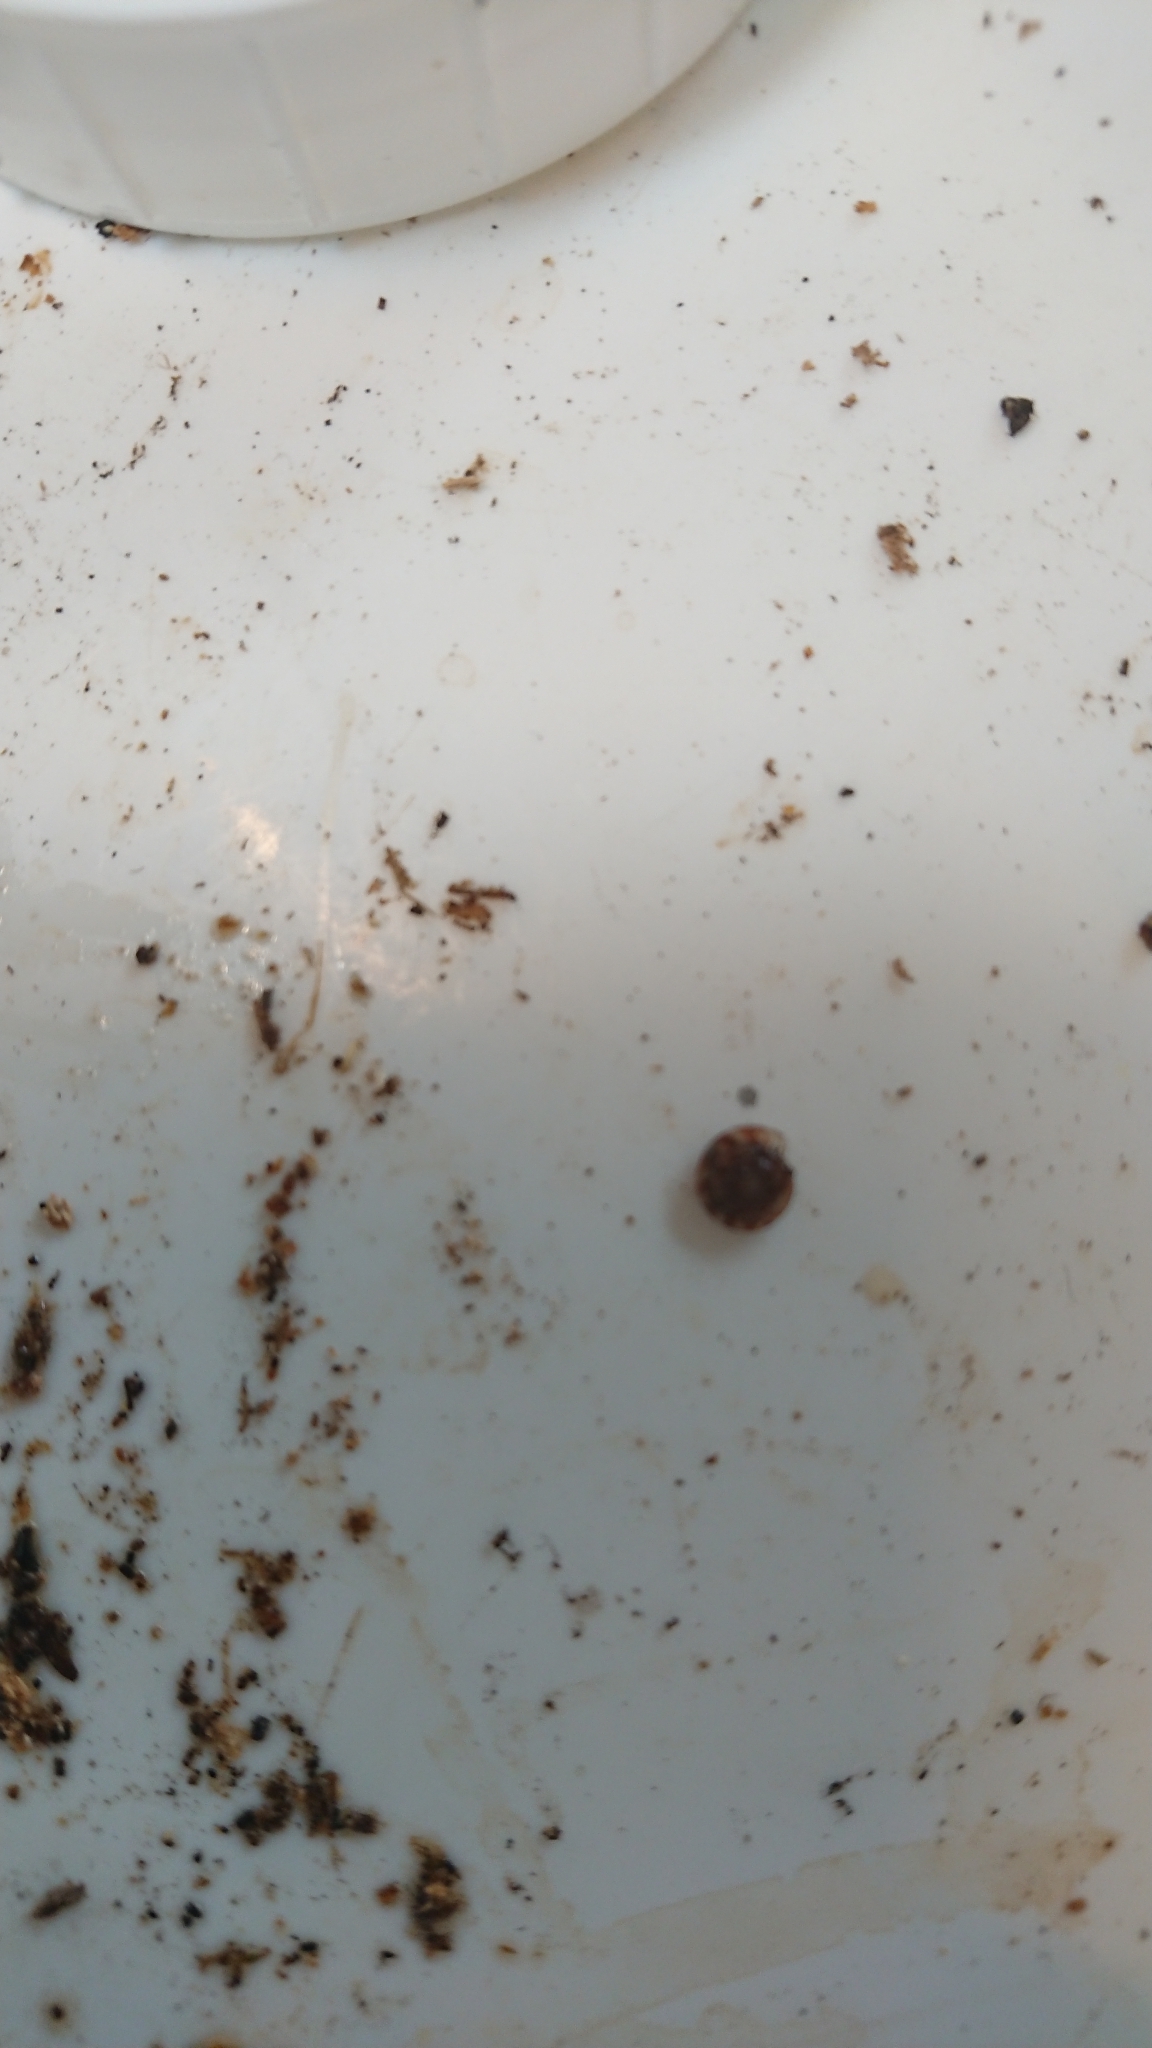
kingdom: Animalia
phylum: Mollusca
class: Gastropoda
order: Stylommatophora
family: Discidae
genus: Discus
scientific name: Discus rotundatus
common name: Rounded snail
